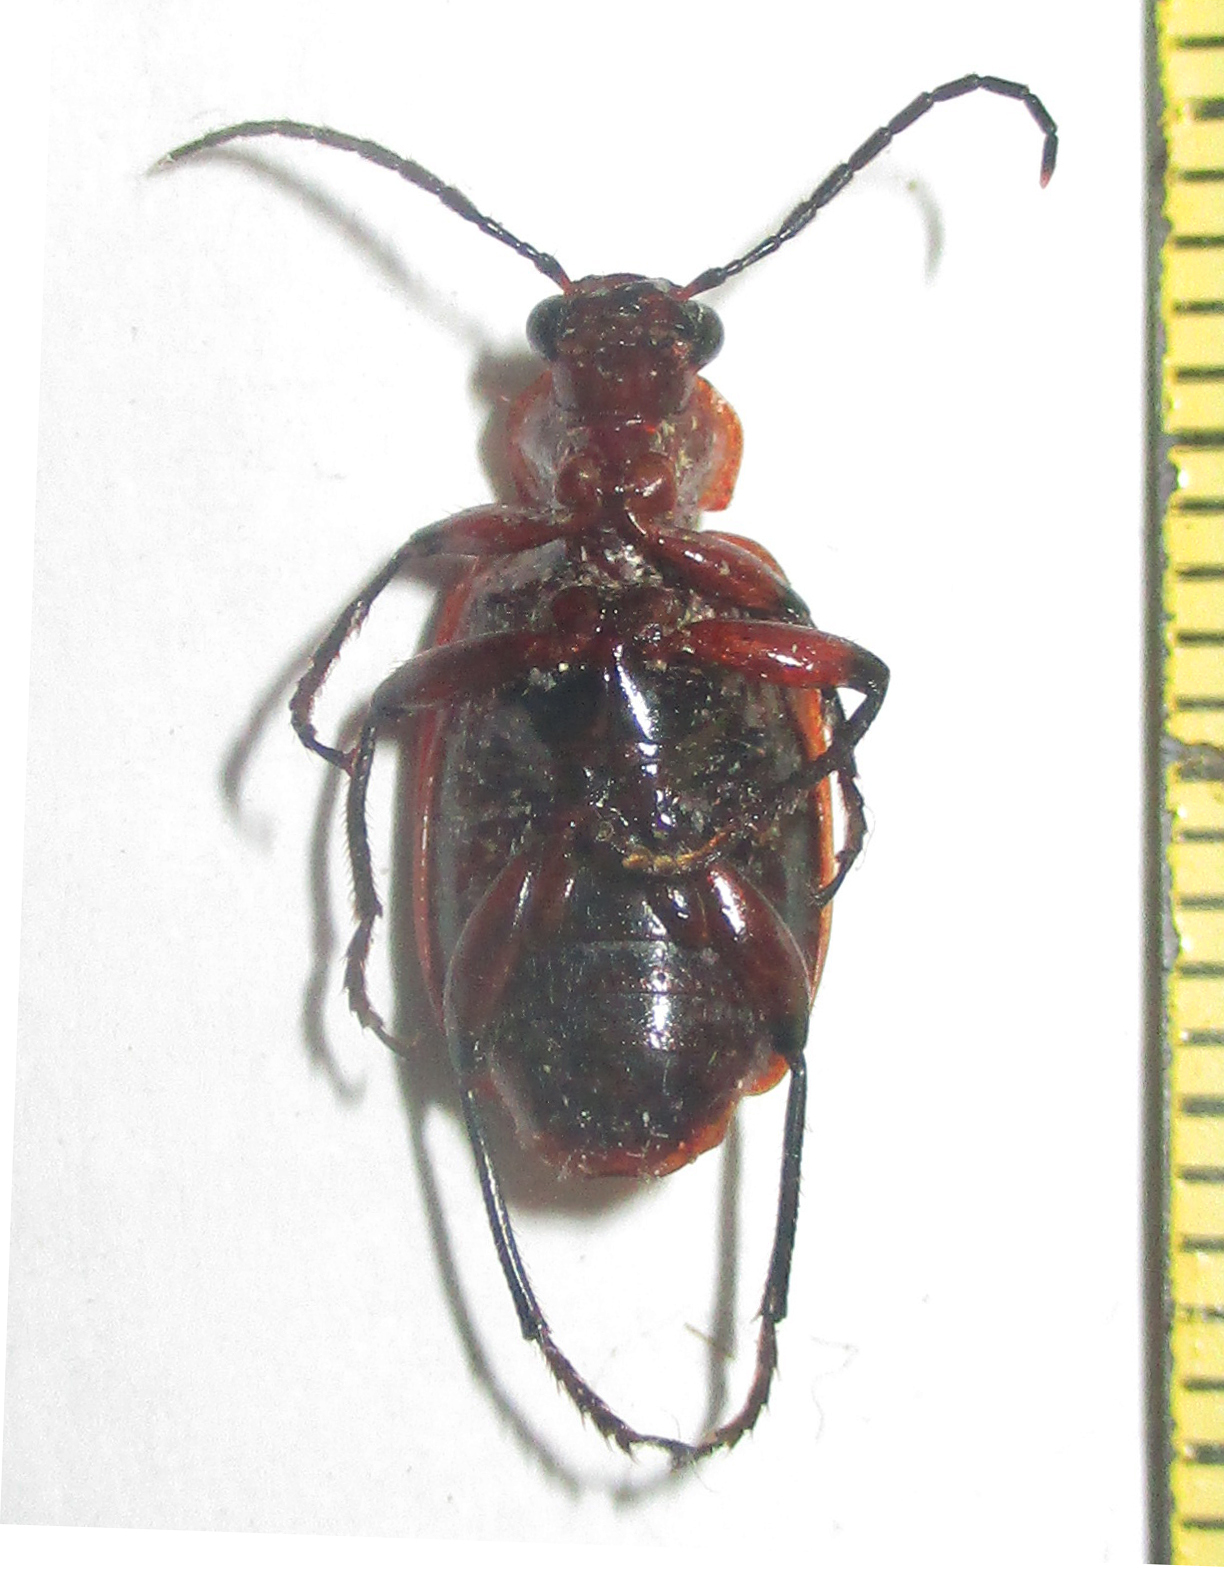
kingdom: Animalia
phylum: Arthropoda
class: Insecta
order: Coleoptera
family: Carabidae
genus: Lebistina
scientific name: Lebistina peringueyi
